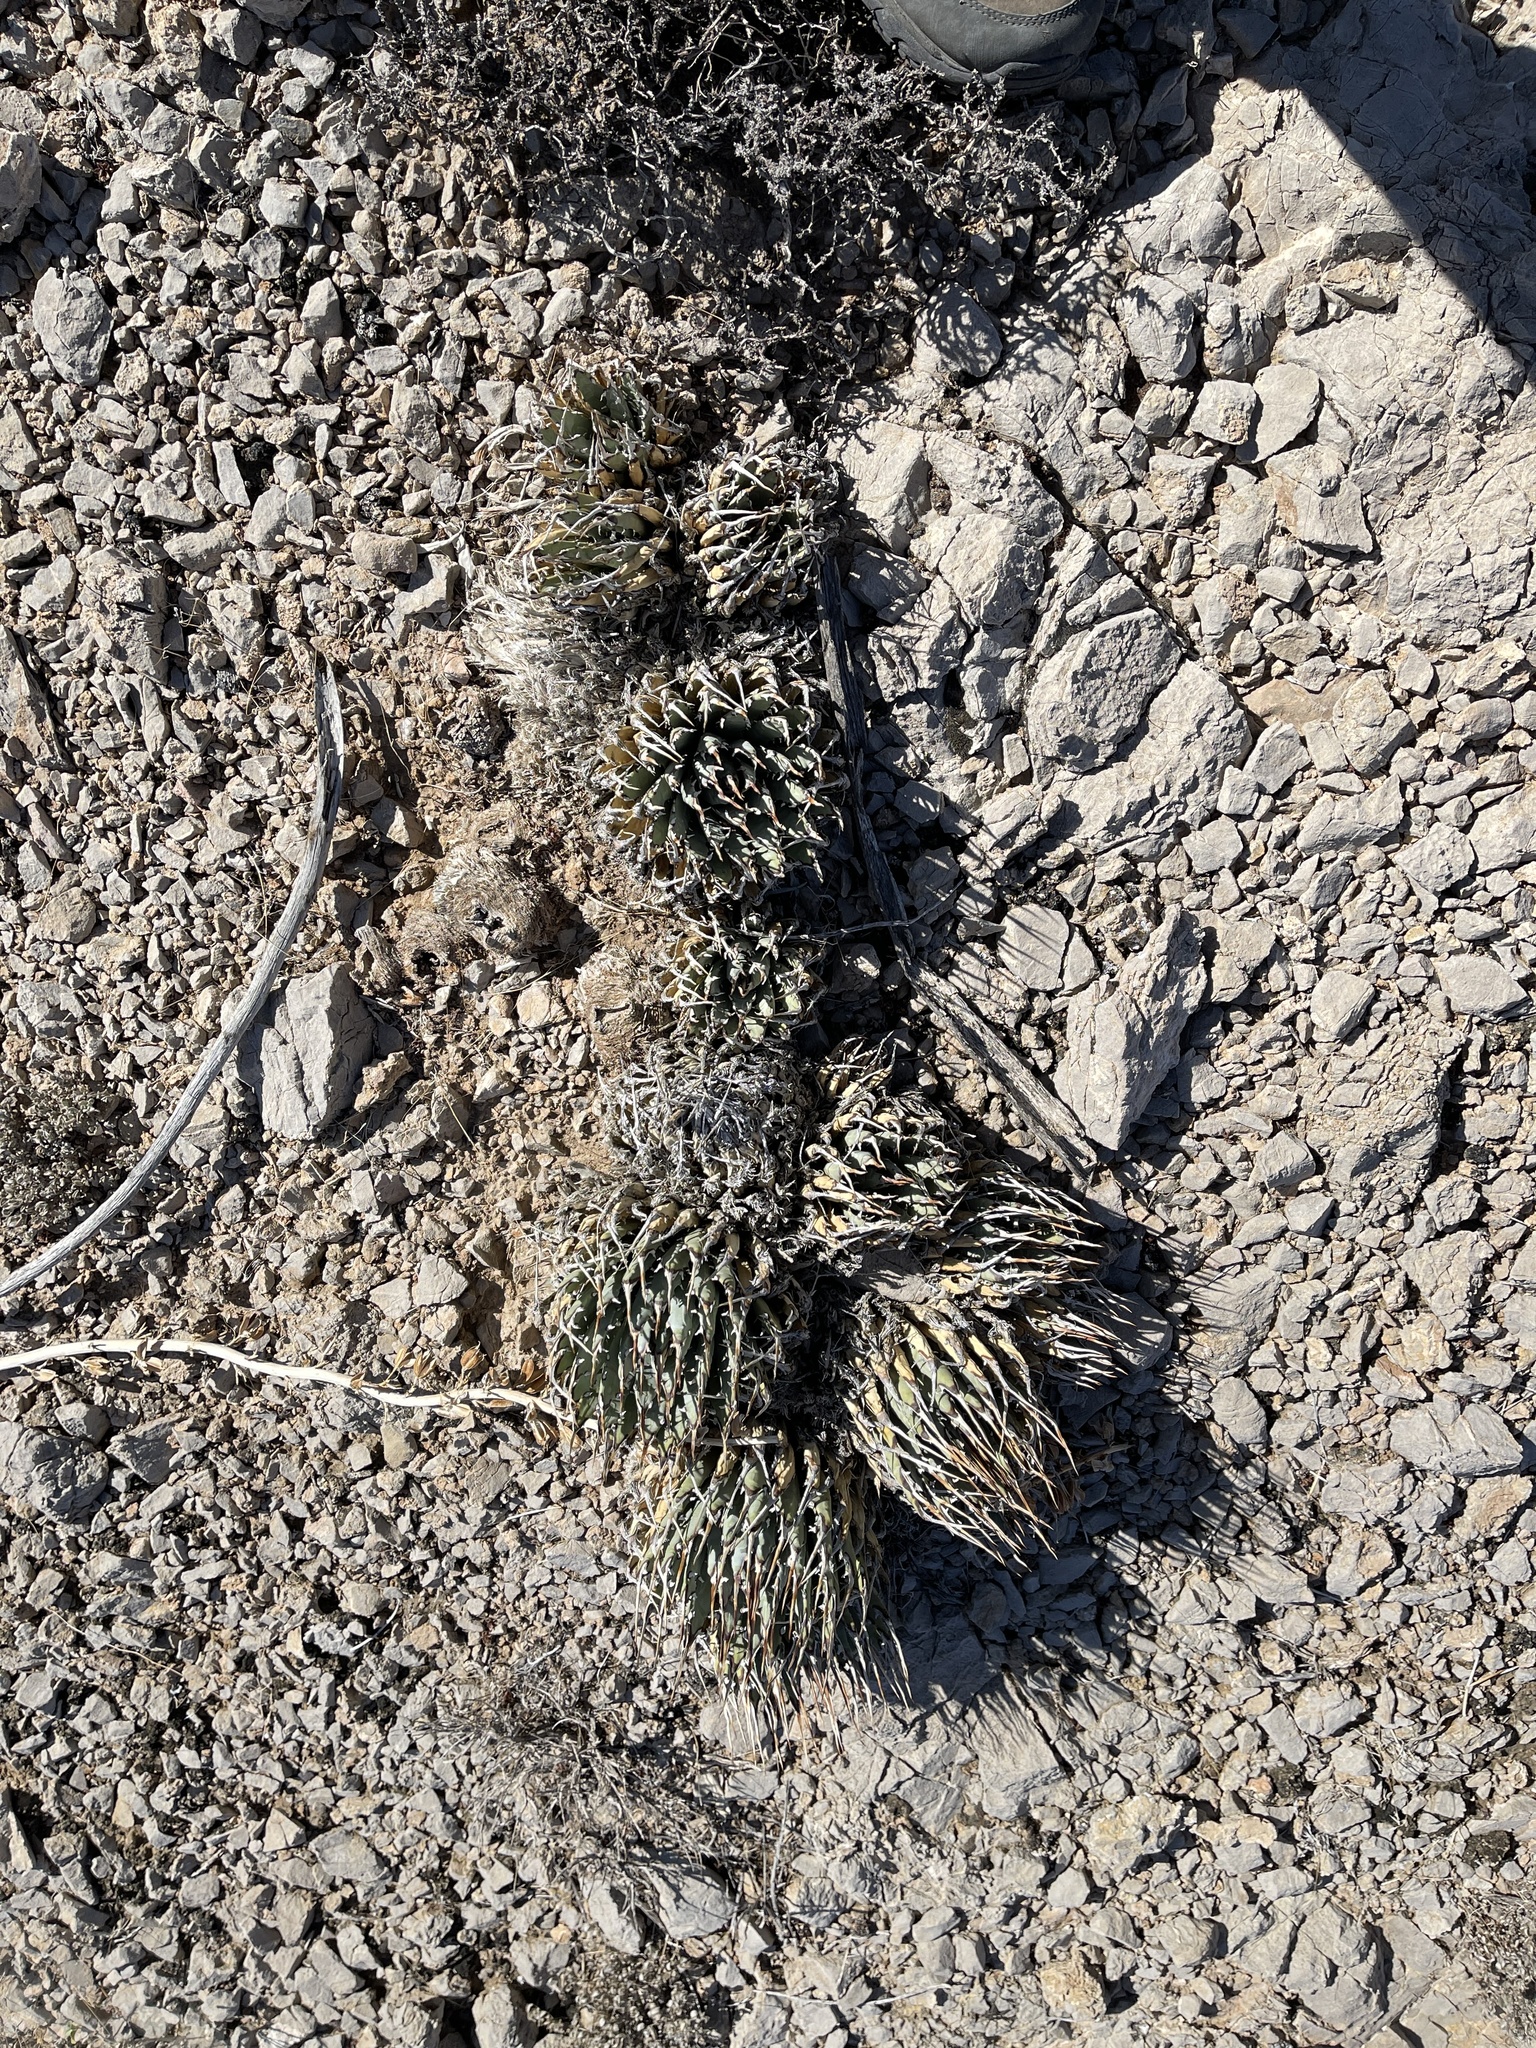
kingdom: Plantae
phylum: Tracheophyta
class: Liliopsida
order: Asparagales
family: Asparagaceae
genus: Agave
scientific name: Agave utahensis
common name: Utah agave
